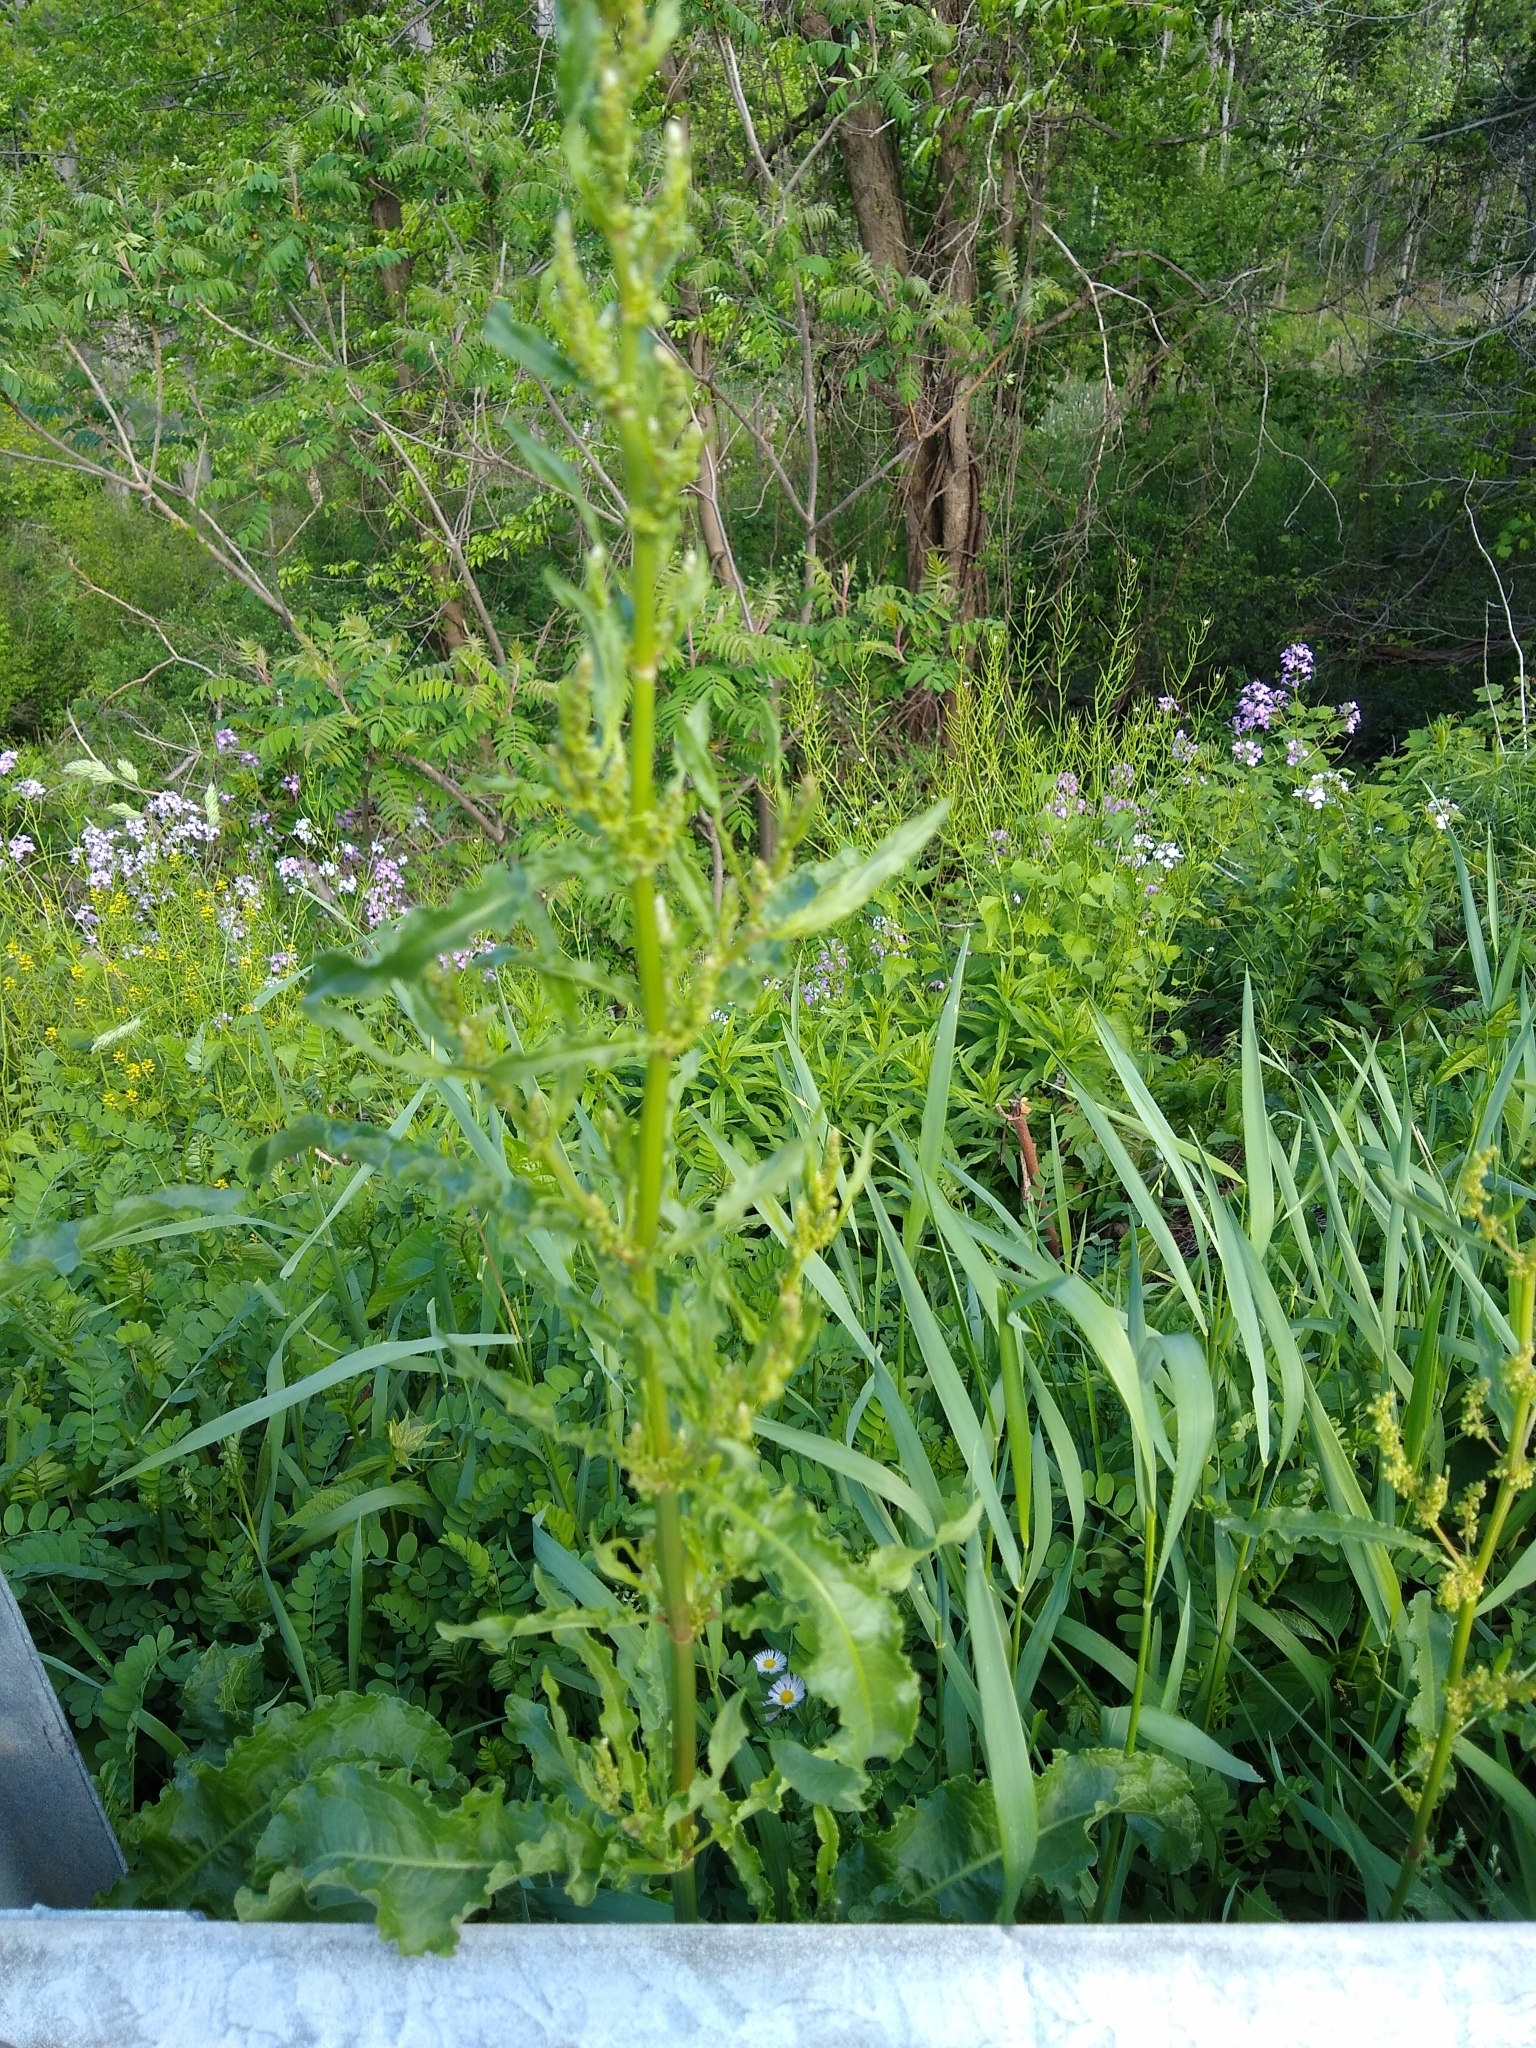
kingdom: Plantae
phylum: Tracheophyta
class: Magnoliopsida
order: Caryophyllales
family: Polygonaceae
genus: Rumex
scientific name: Rumex crispus
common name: Curled dock
